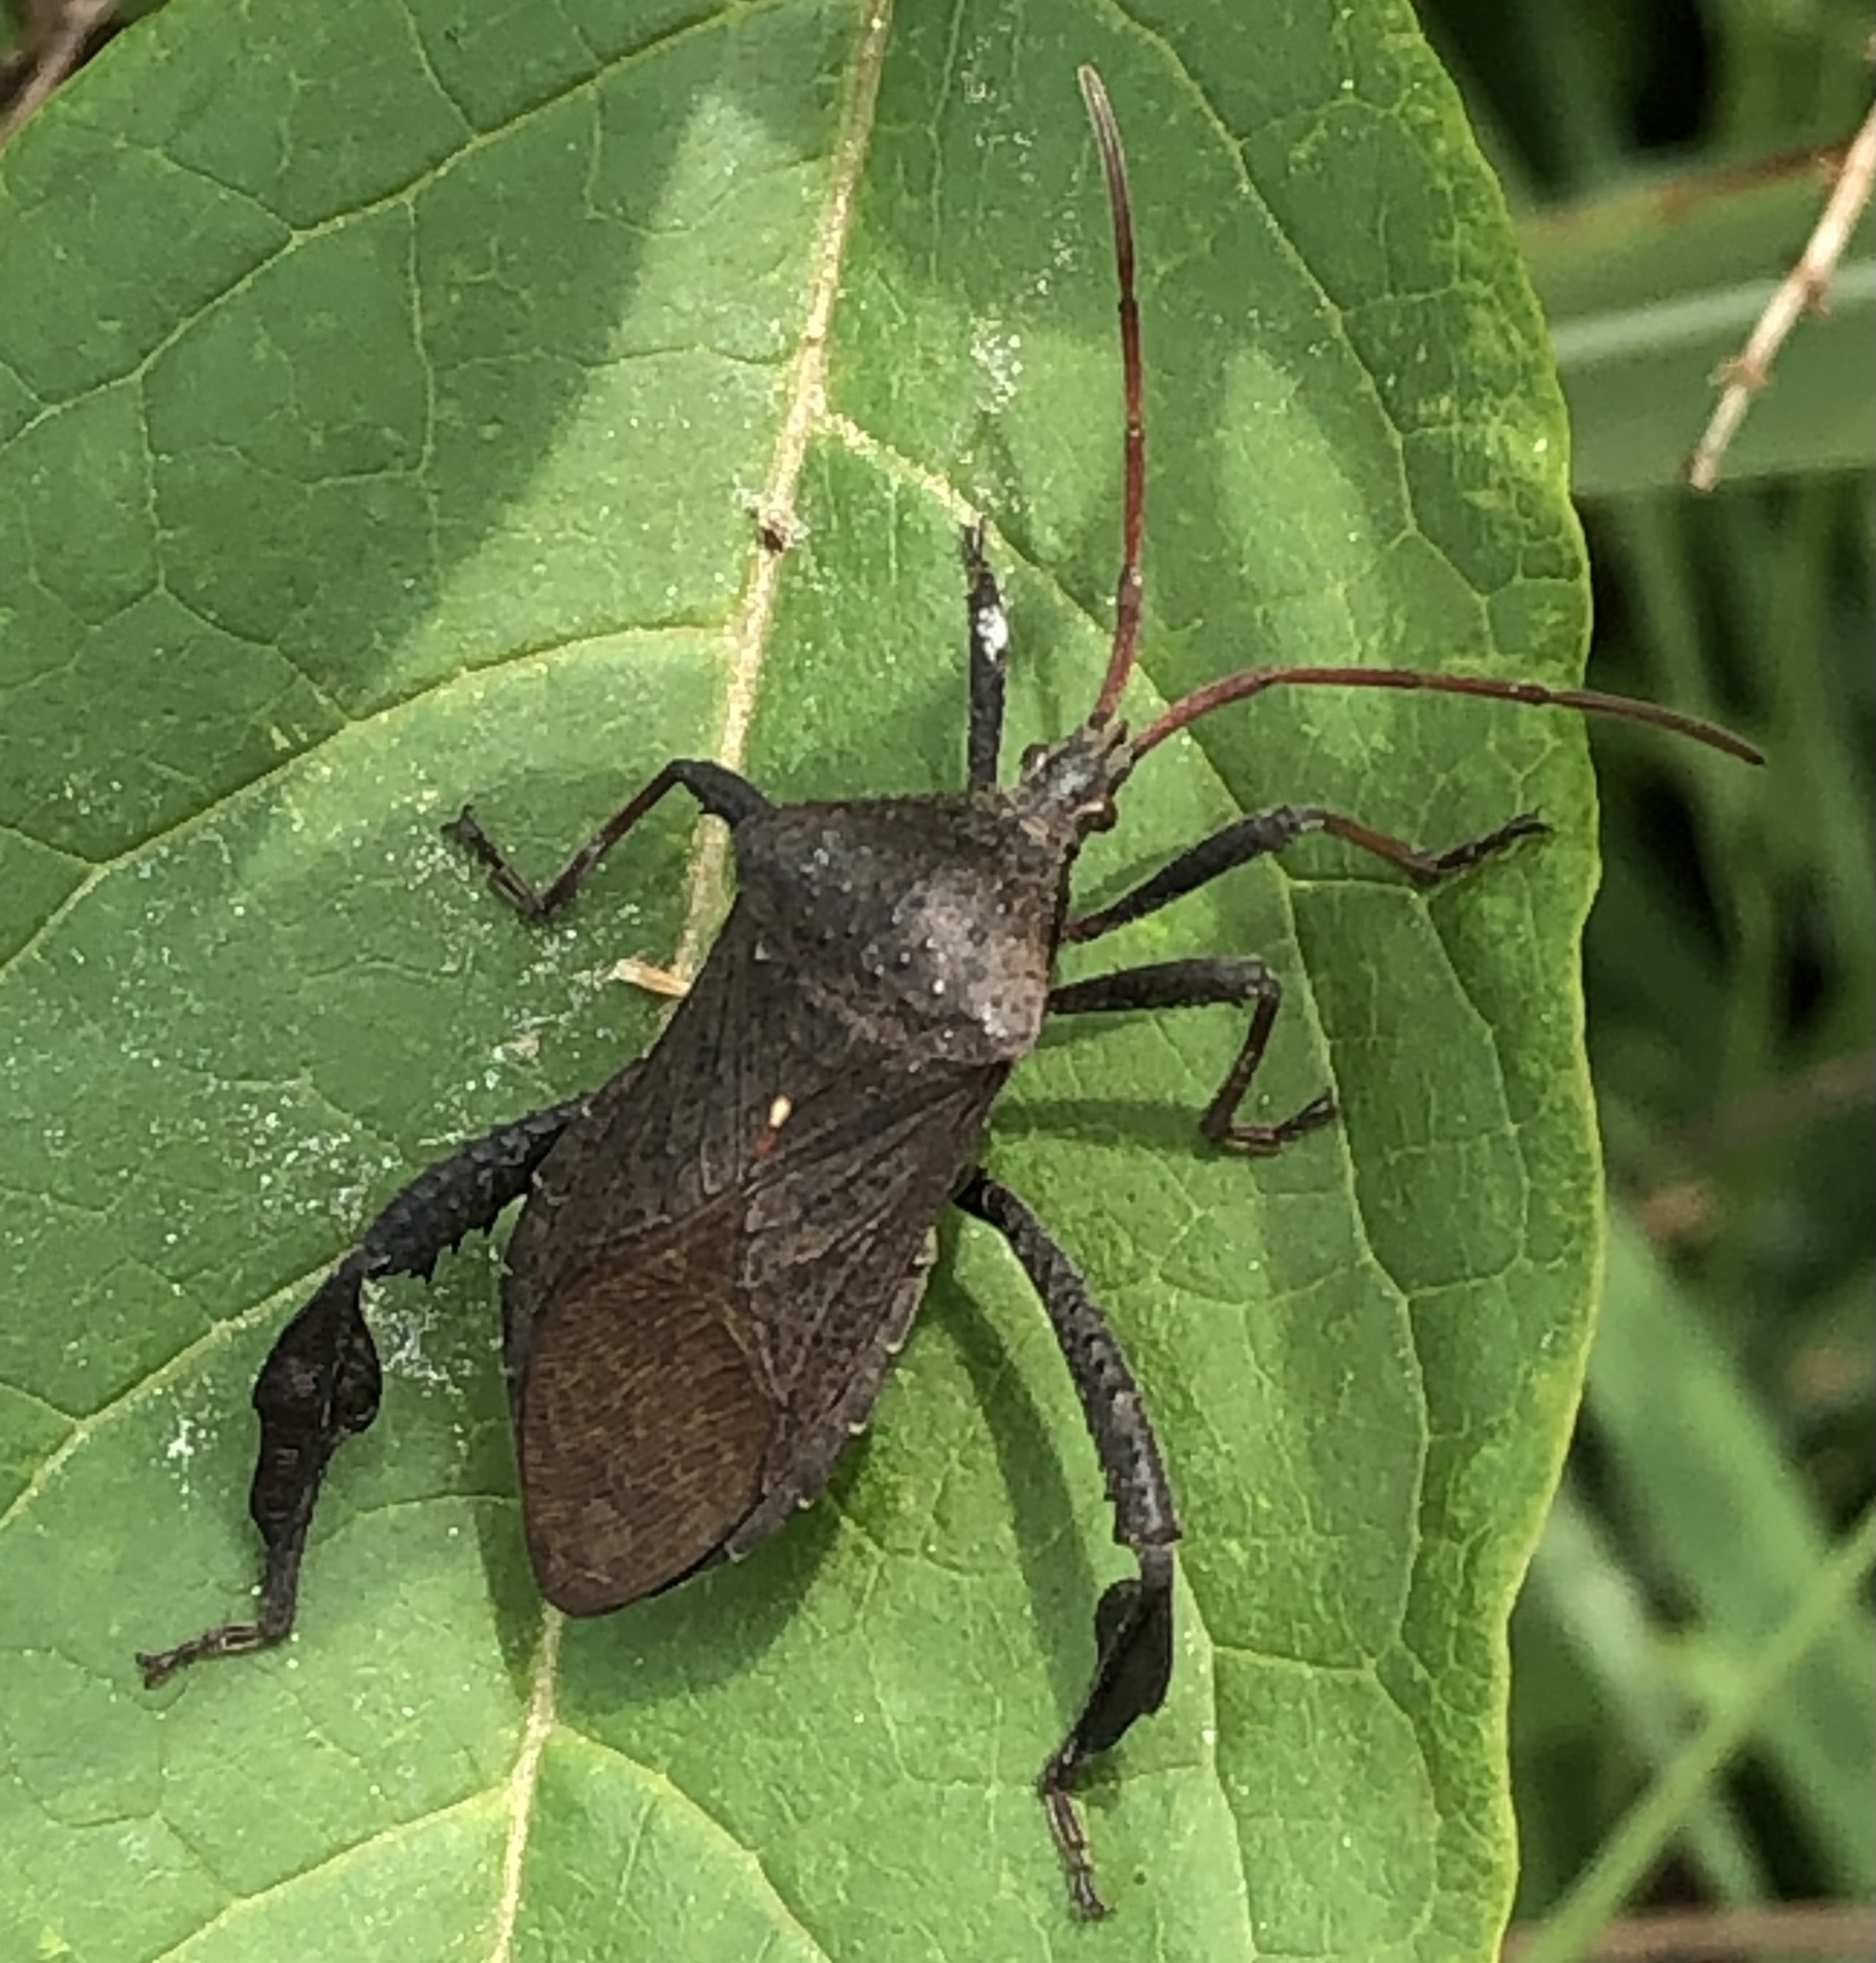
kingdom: Animalia
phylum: Arthropoda
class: Insecta
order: Hemiptera
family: Coreidae
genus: Acanthocephala
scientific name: Acanthocephala femorata
